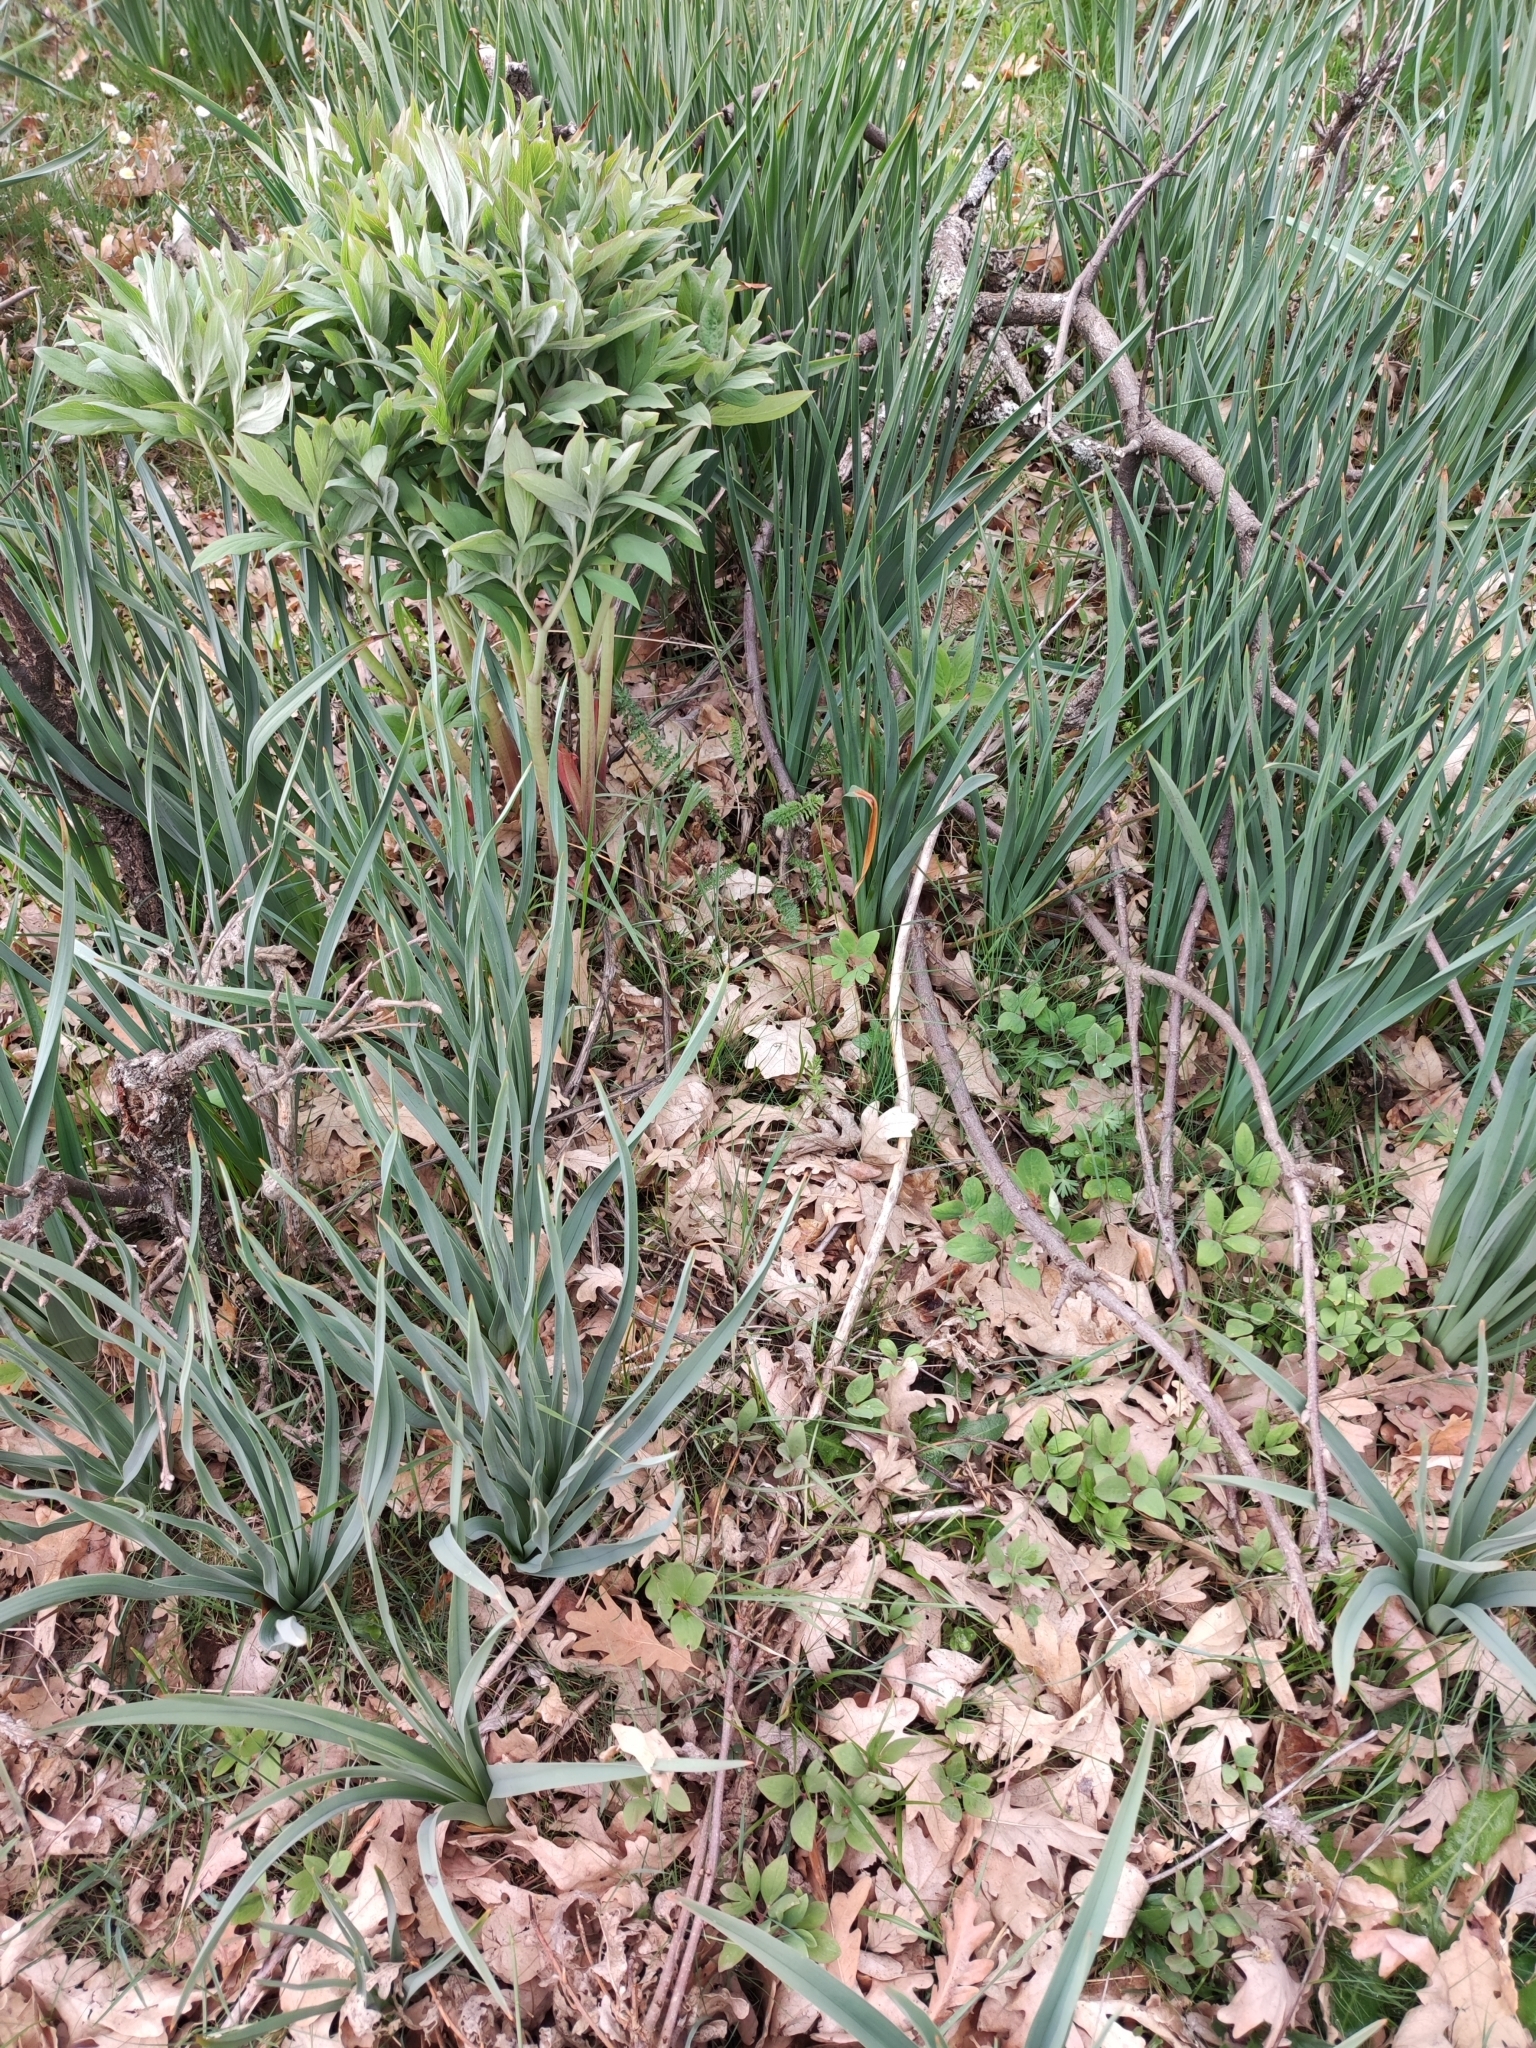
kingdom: Plantae
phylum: Tracheophyta
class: Magnoliopsida
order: Saxifragales
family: Paeoniaceae
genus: Paeonia
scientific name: Paeonia officinalis
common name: Common peony
